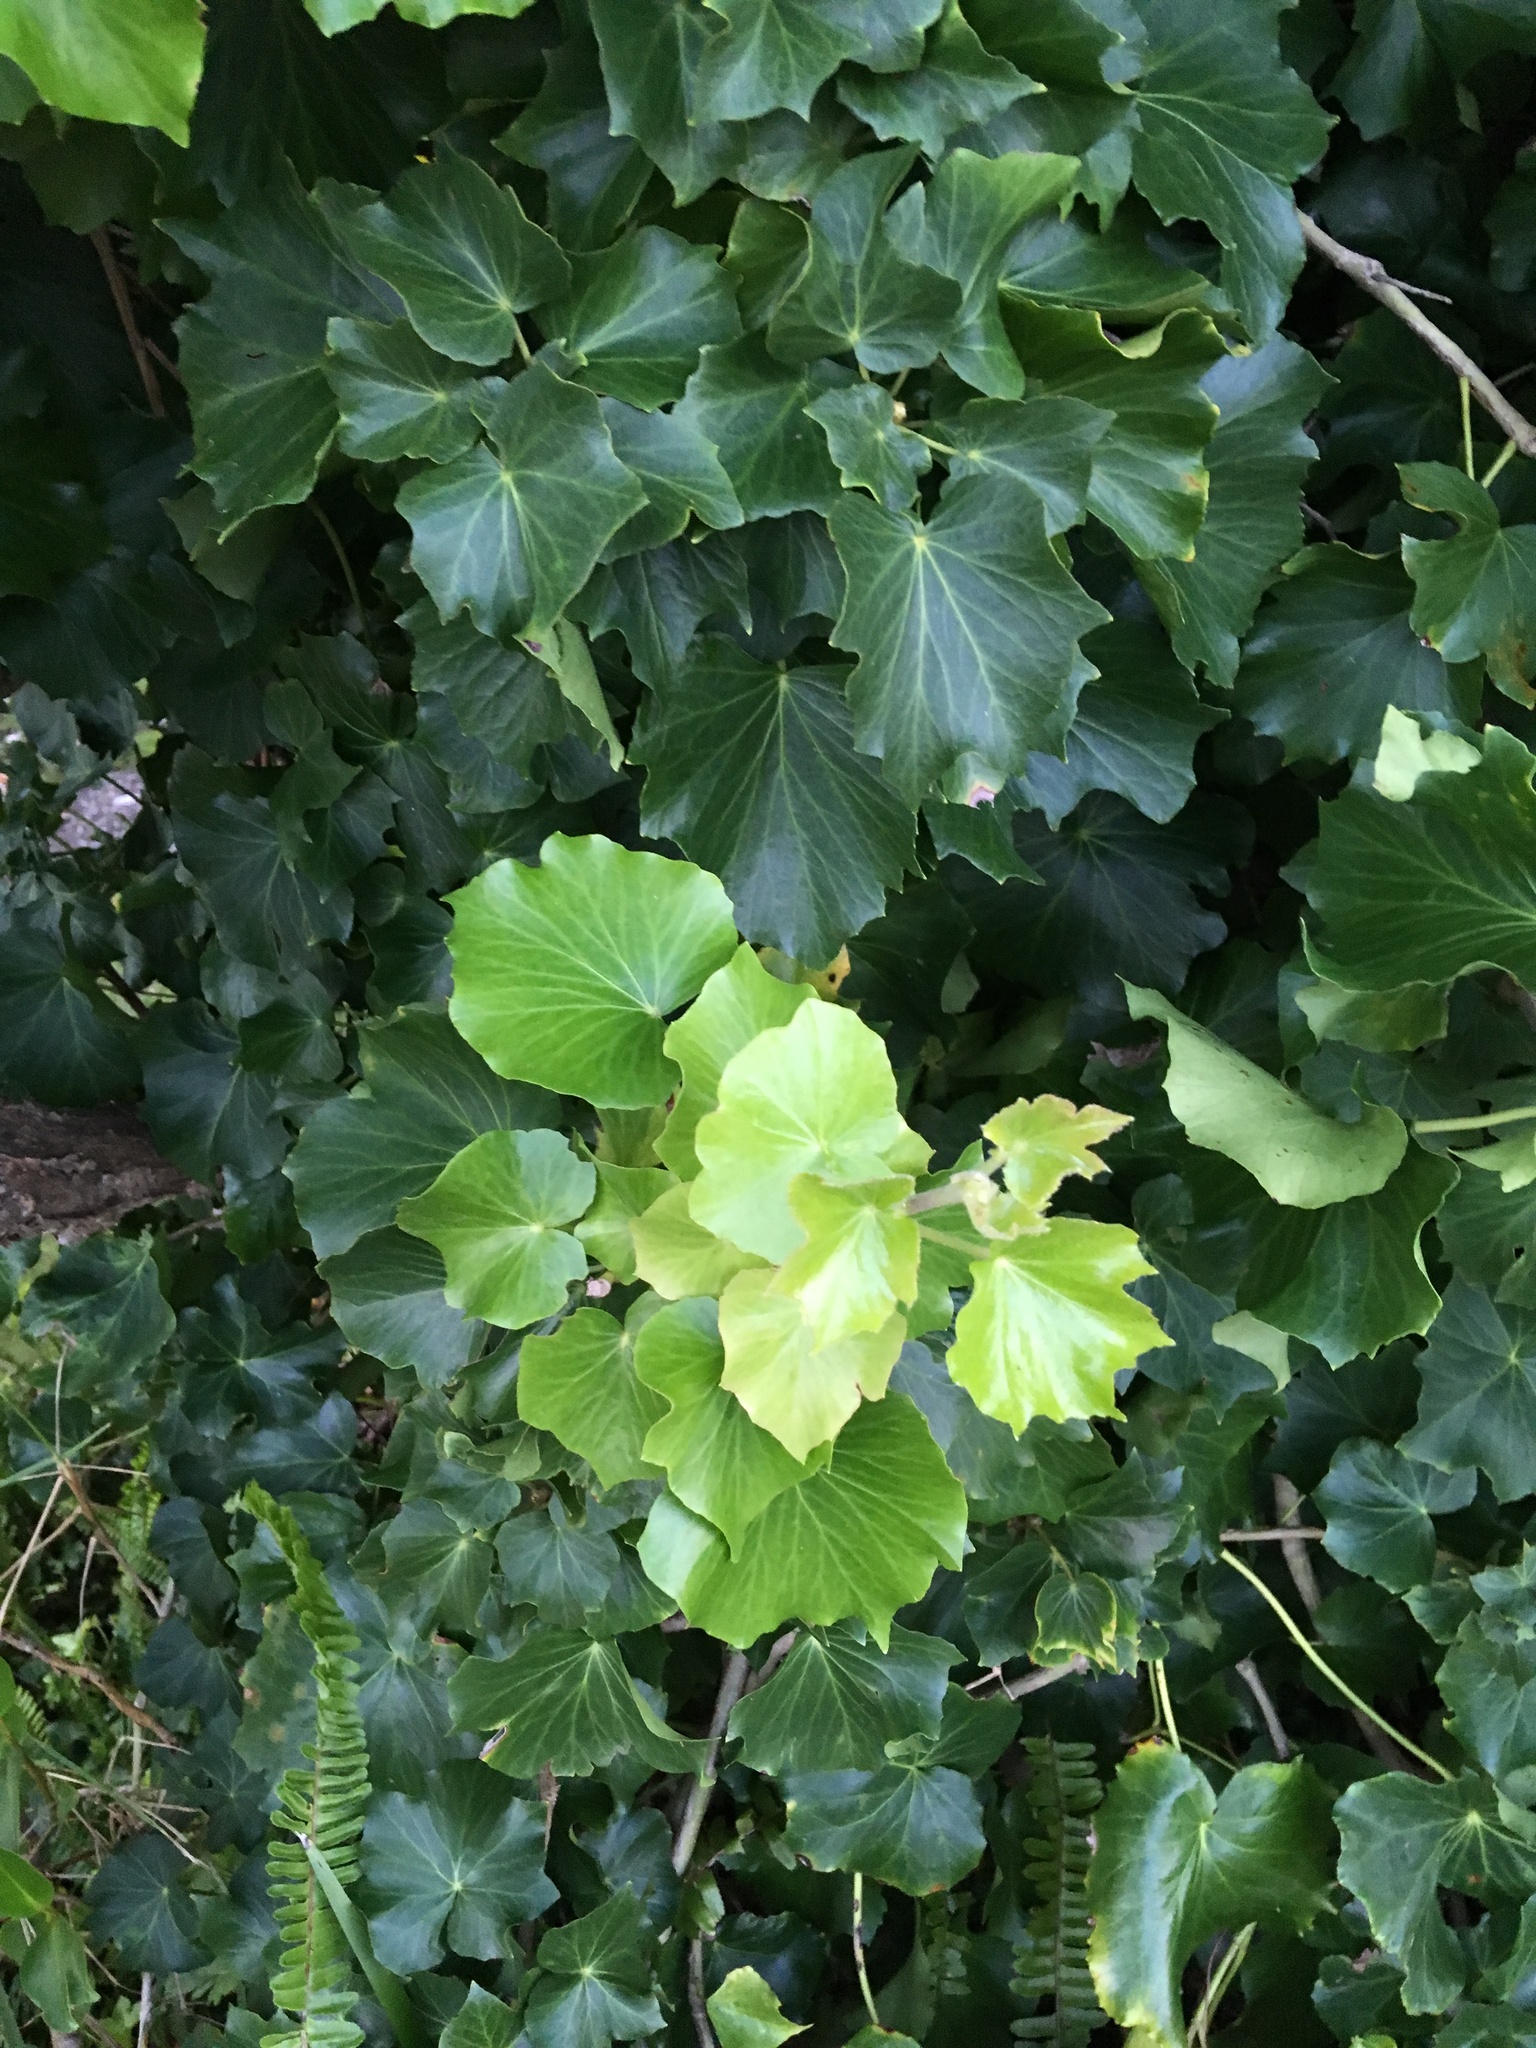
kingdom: Plantae
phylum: Tracheophyta
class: Magnoliopsida
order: Apiales
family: Araliaceae
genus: Hedera
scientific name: Hedera helix
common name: Ivy
